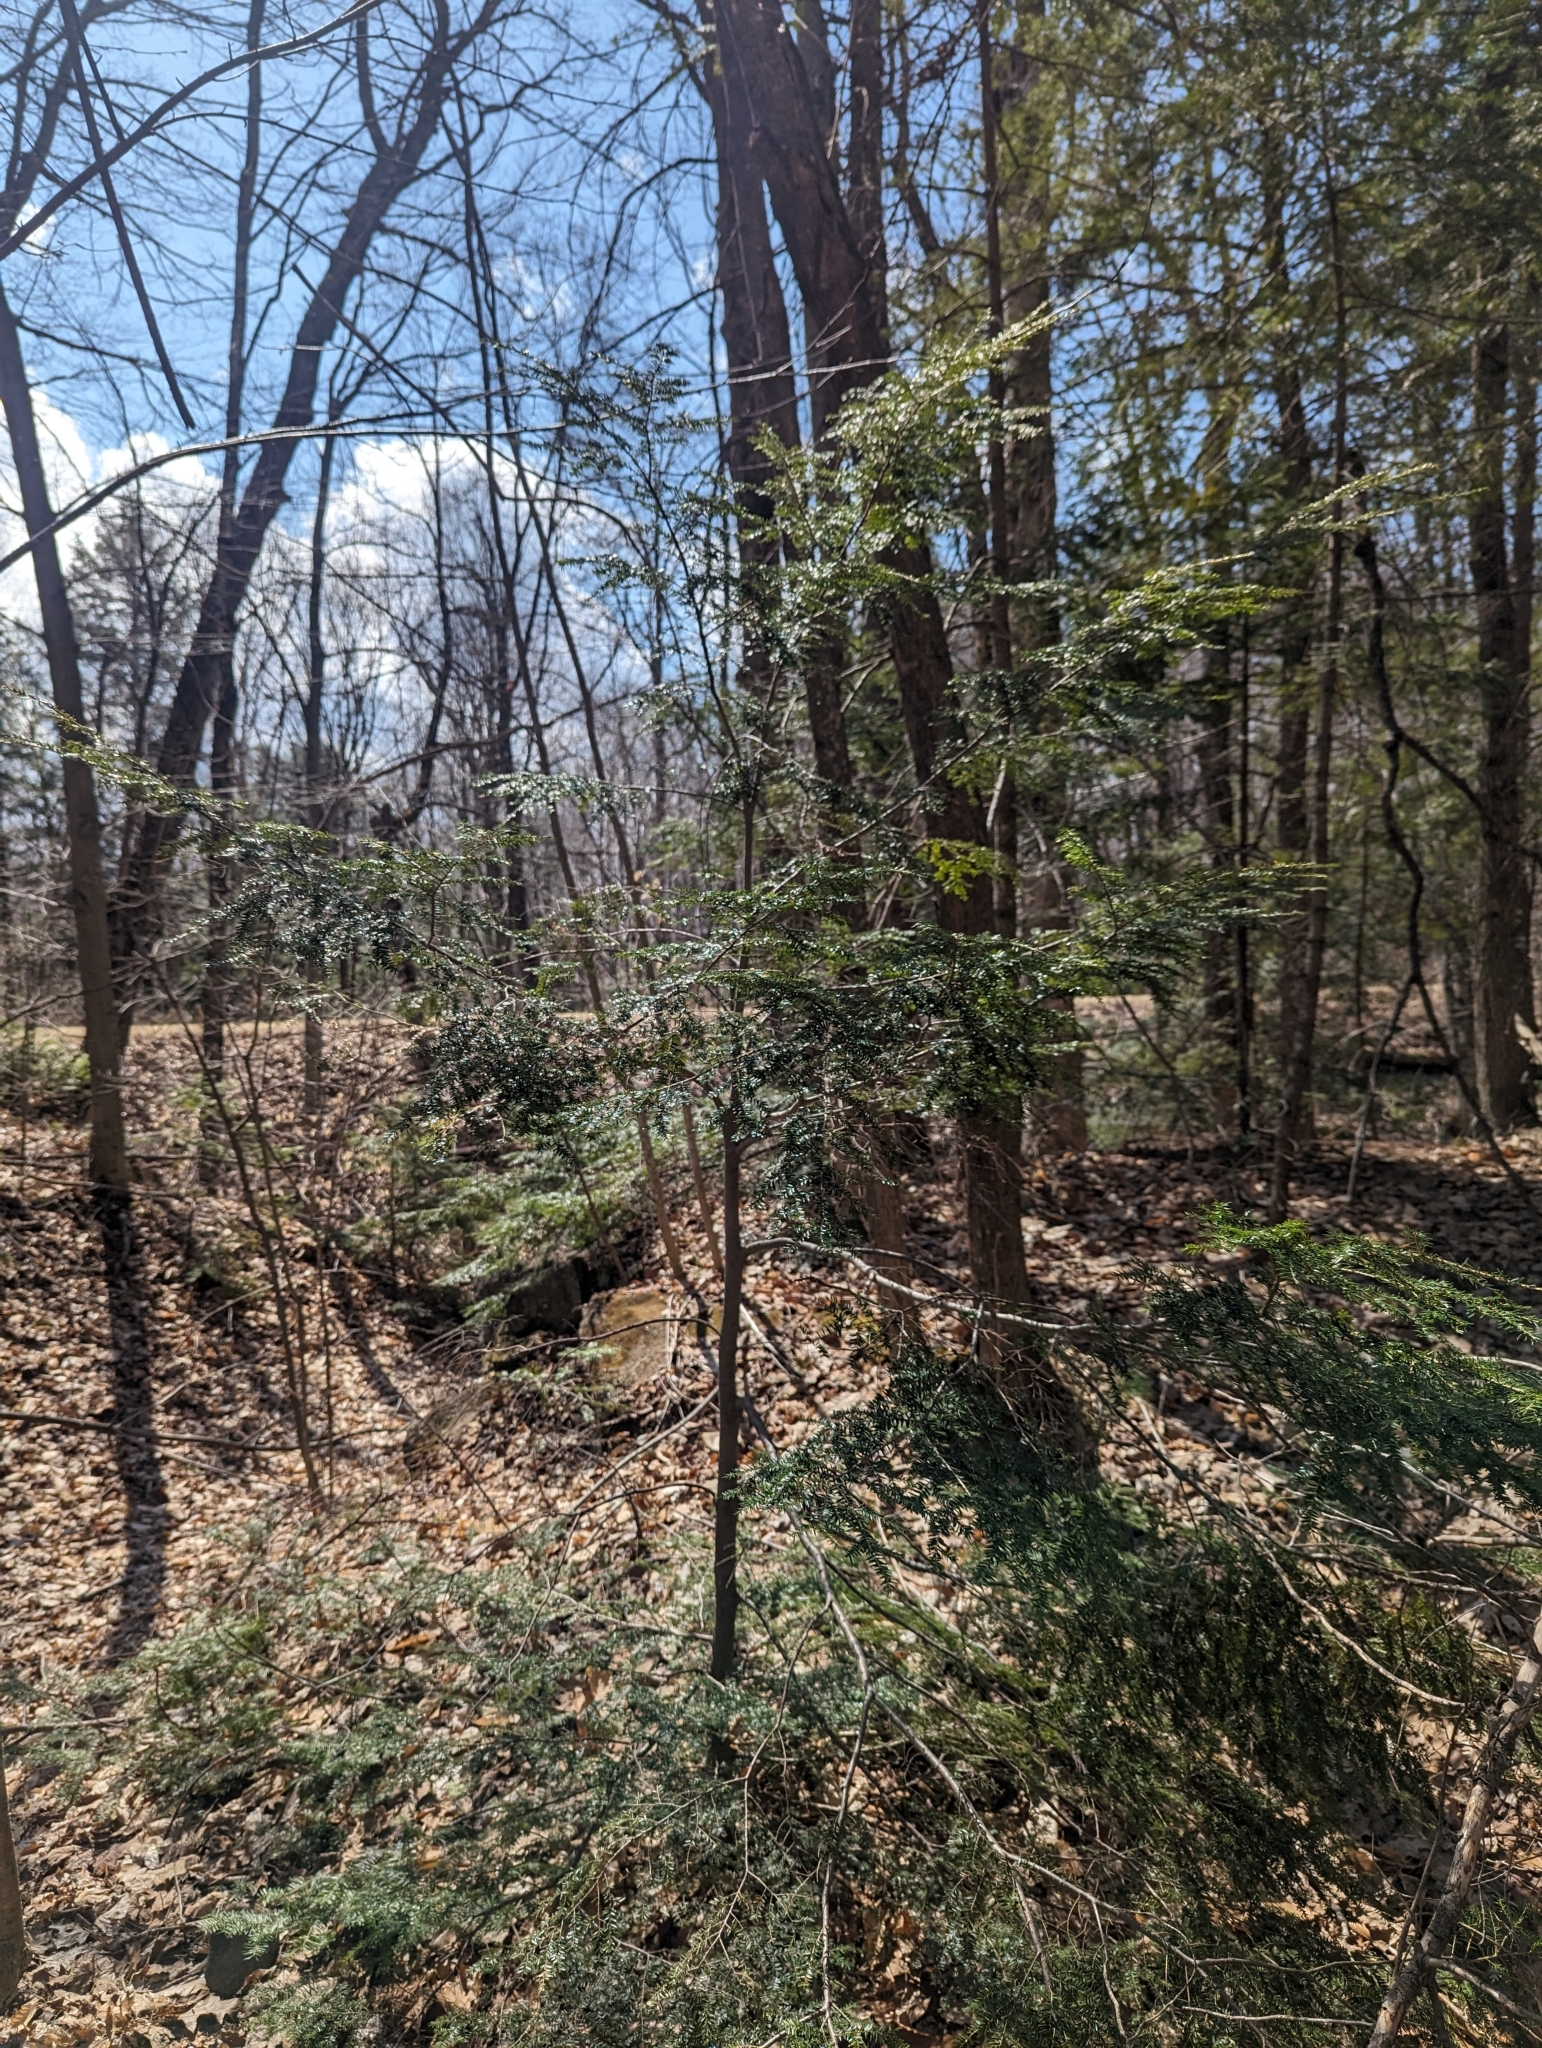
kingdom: Plantae
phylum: Tracheophyta
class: Pinopsida
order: Pinales
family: Pinaceae
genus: Tsuga
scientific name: Tsuga canadensis
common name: Eastern hemlock
